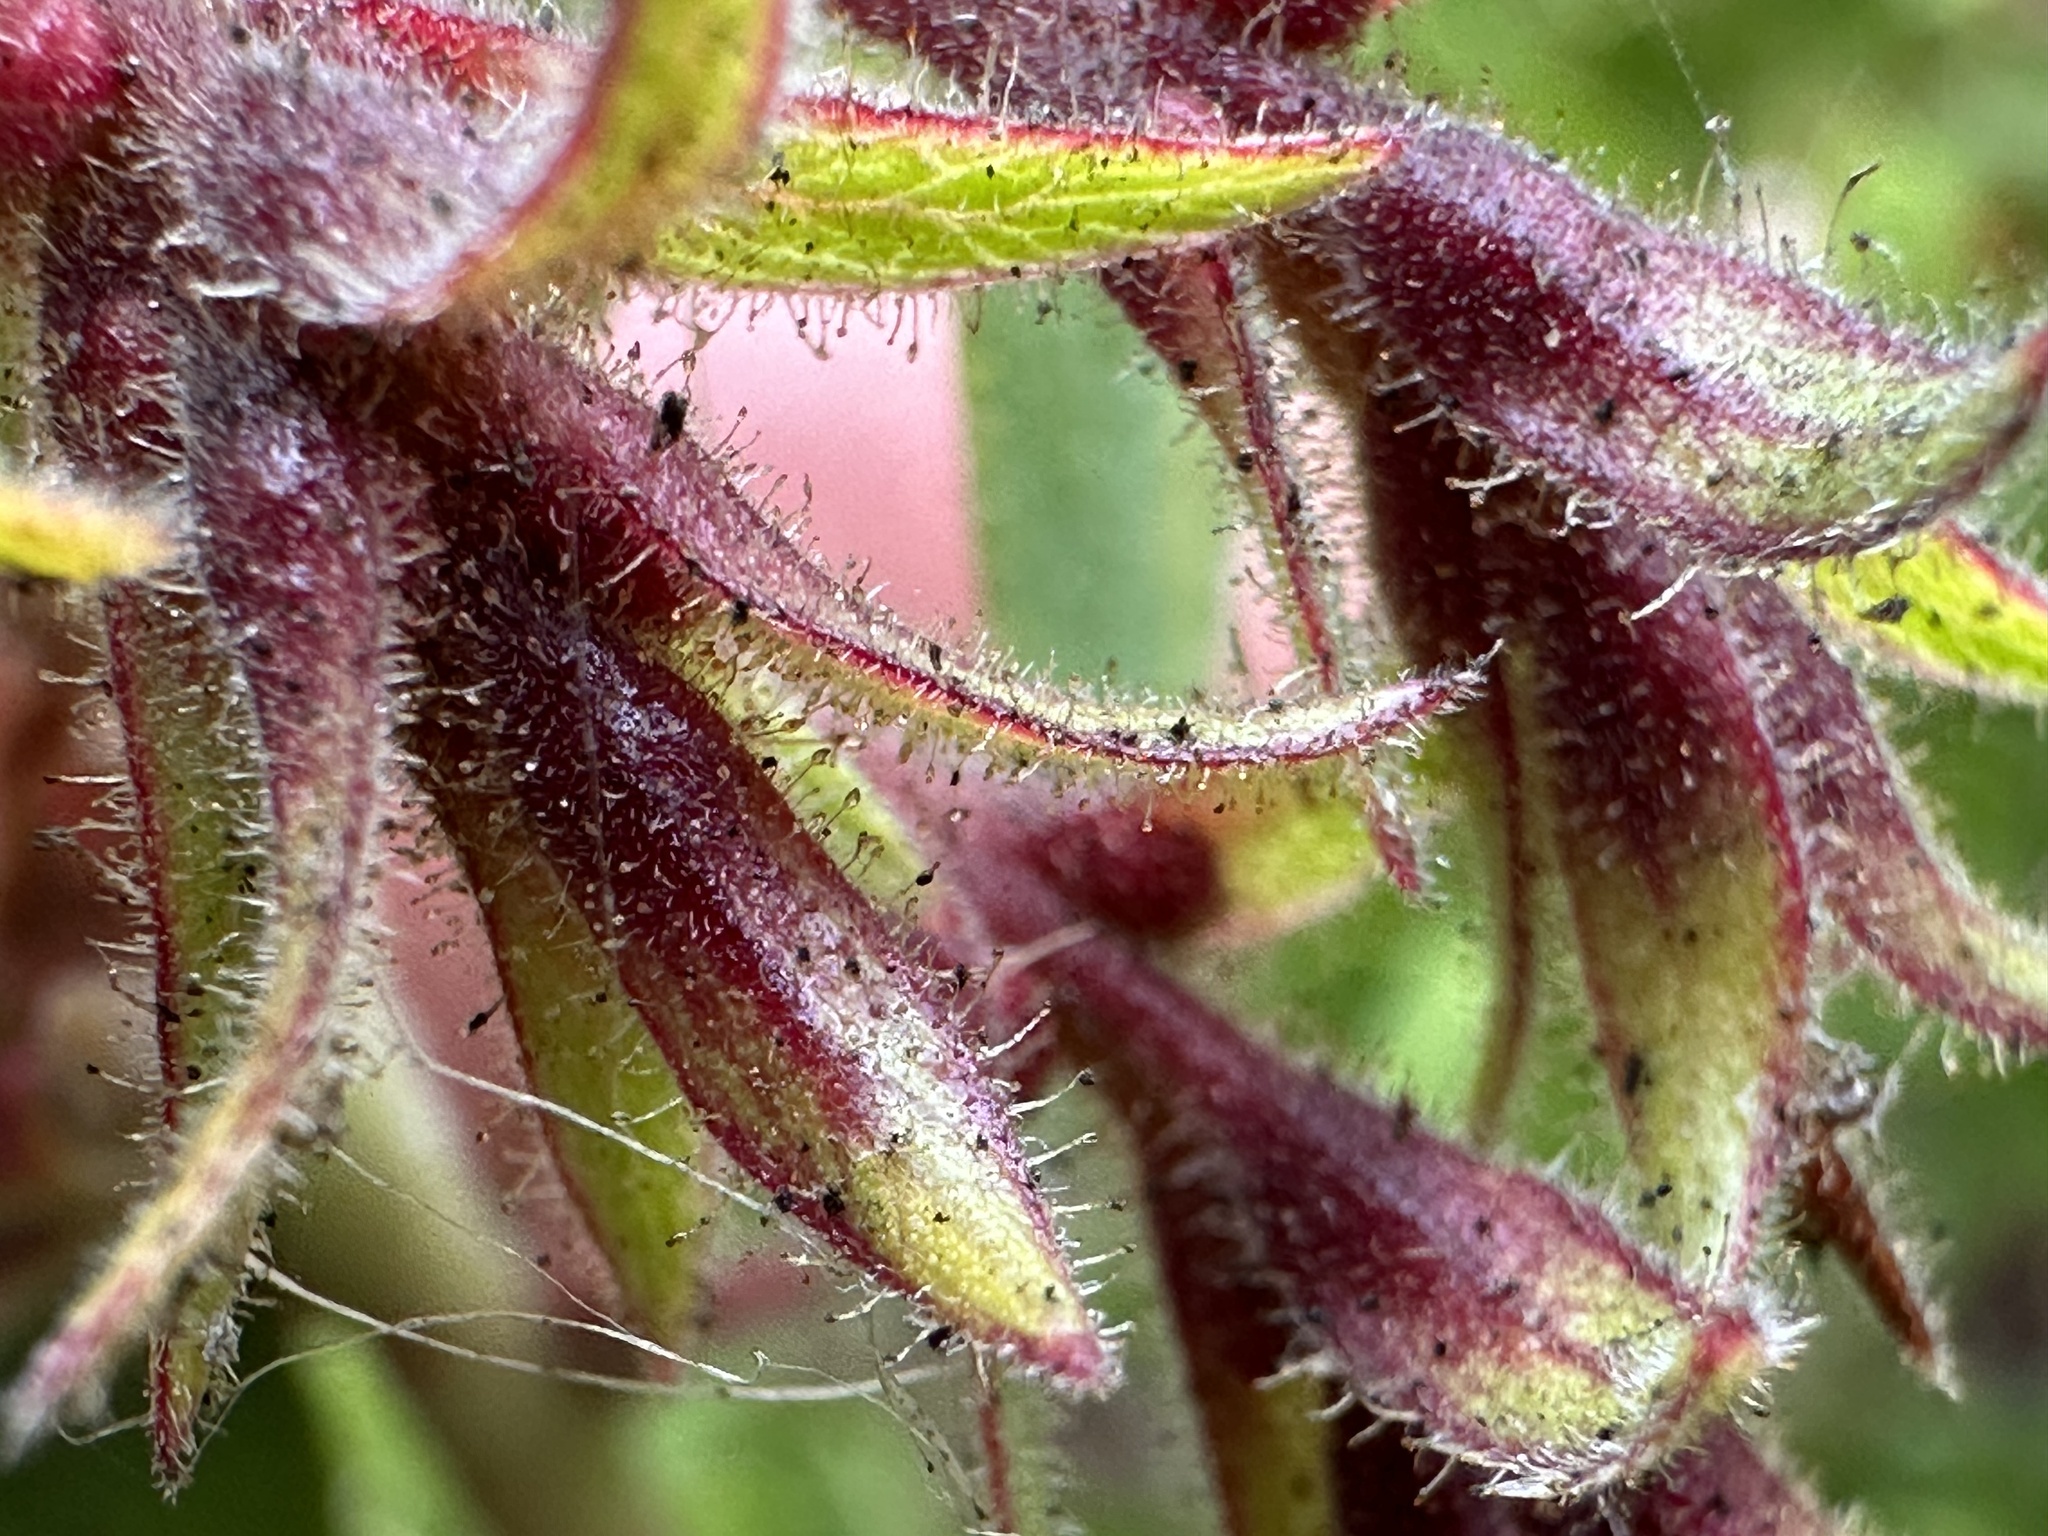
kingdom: Plantae
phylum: Tracheophyta
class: Magnoliopsida
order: Ericales
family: Ericaceae
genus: Arctostaphylos
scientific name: Arctostaphylos montereyensis
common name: Monterey manzanita
